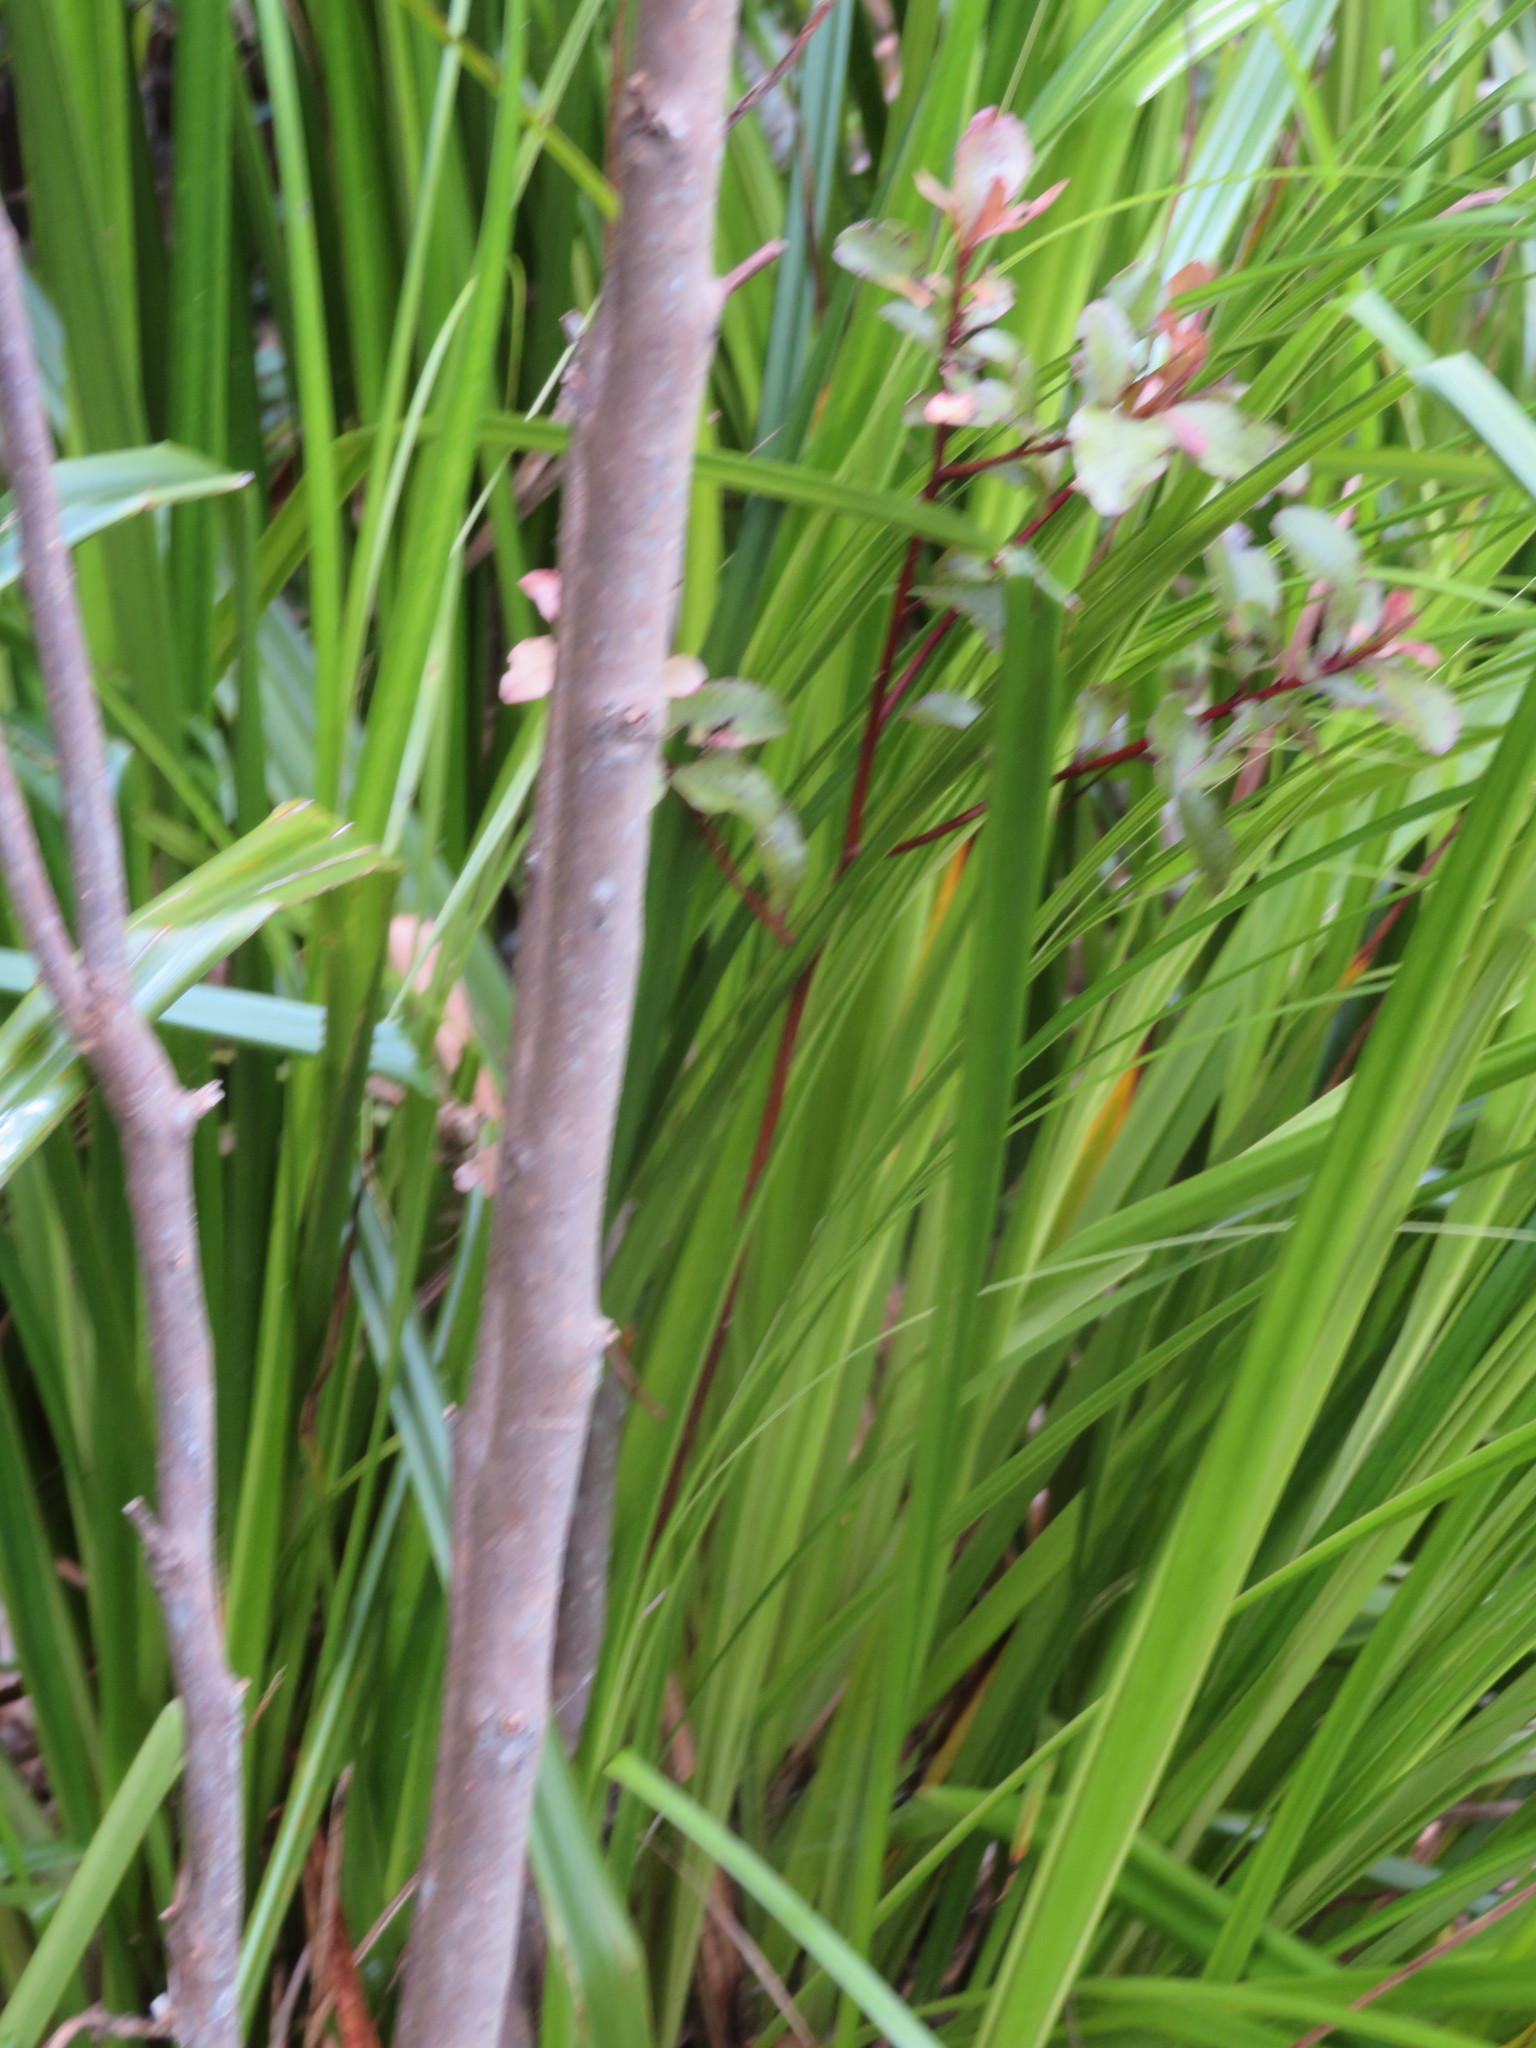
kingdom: Plantae
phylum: Tracheophyta
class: Magnoliopsida
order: Ericales
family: Primulaceae
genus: Myrsine
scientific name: Myrsine australis
